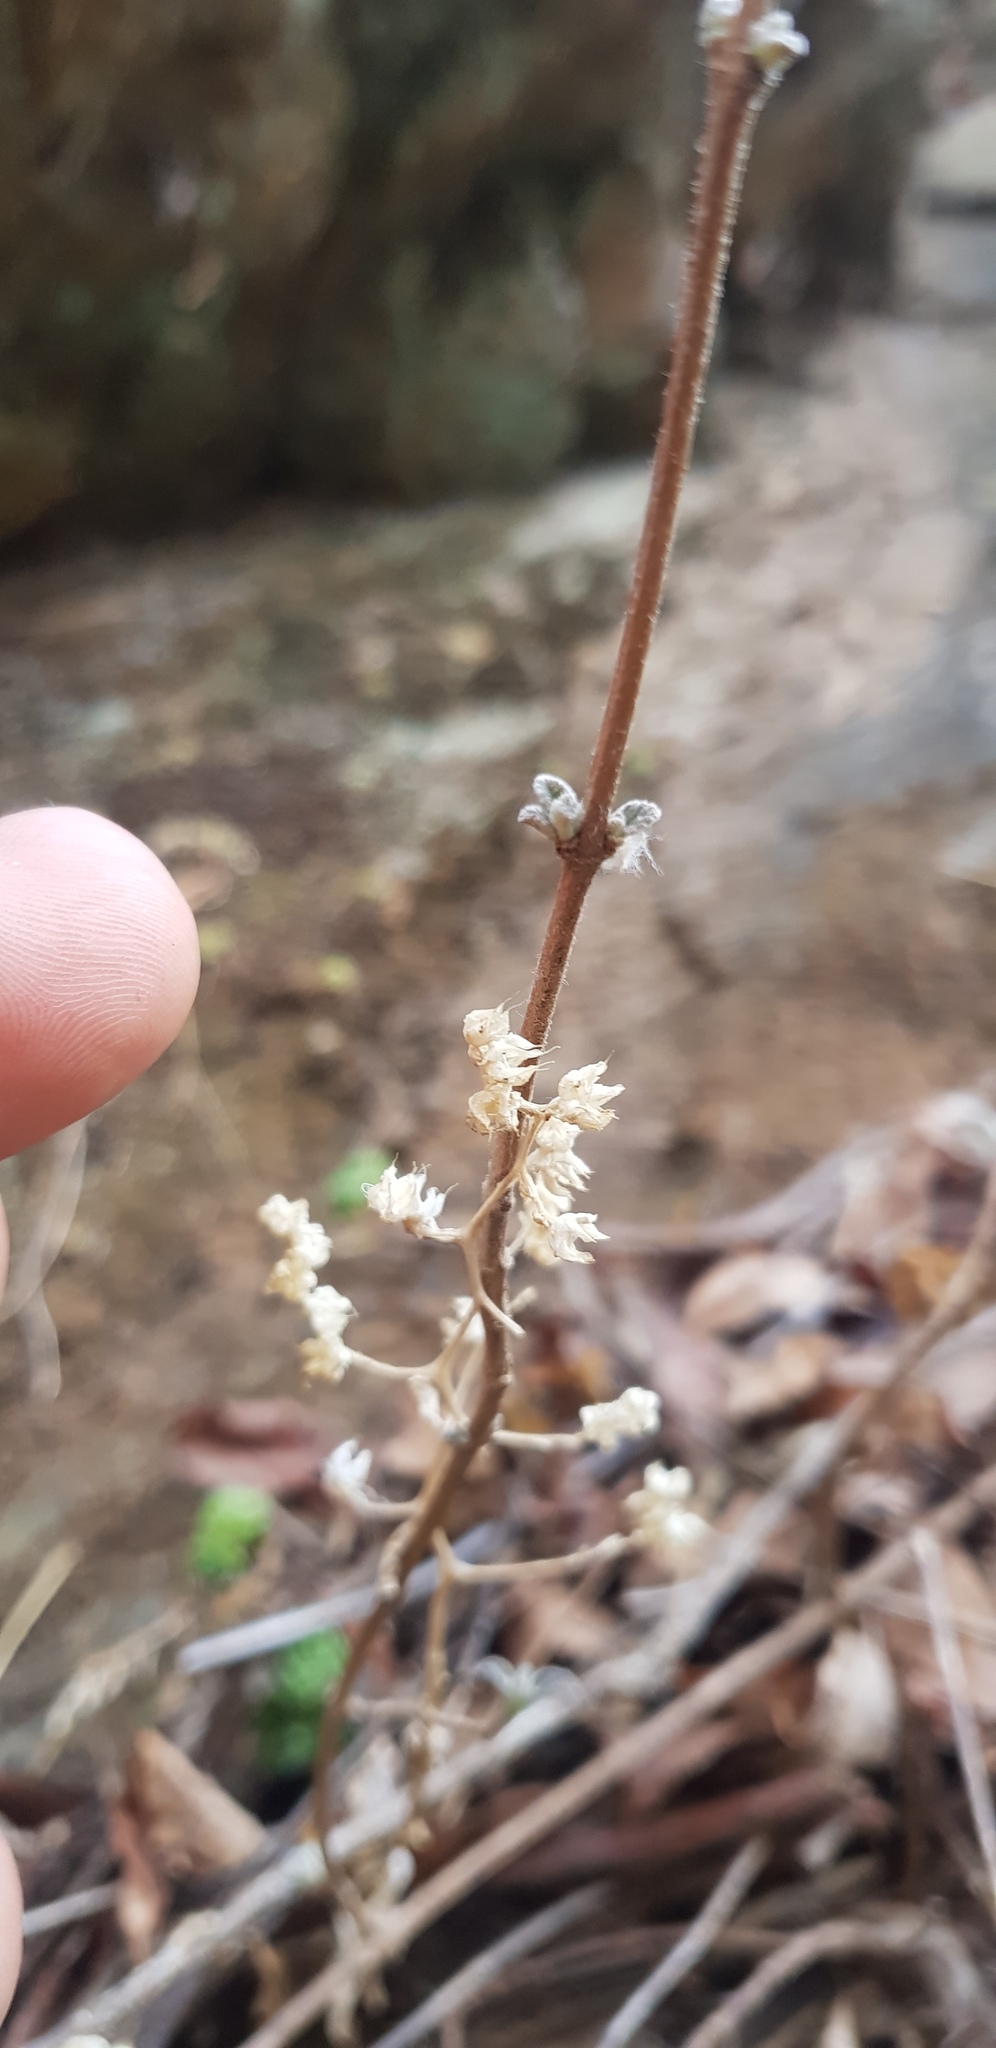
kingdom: Plantae
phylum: Tracheophyta
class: Magnoliopsida
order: Saxifragales
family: Crassulaceae
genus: Sedum
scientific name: Sedum hemsleyanum
